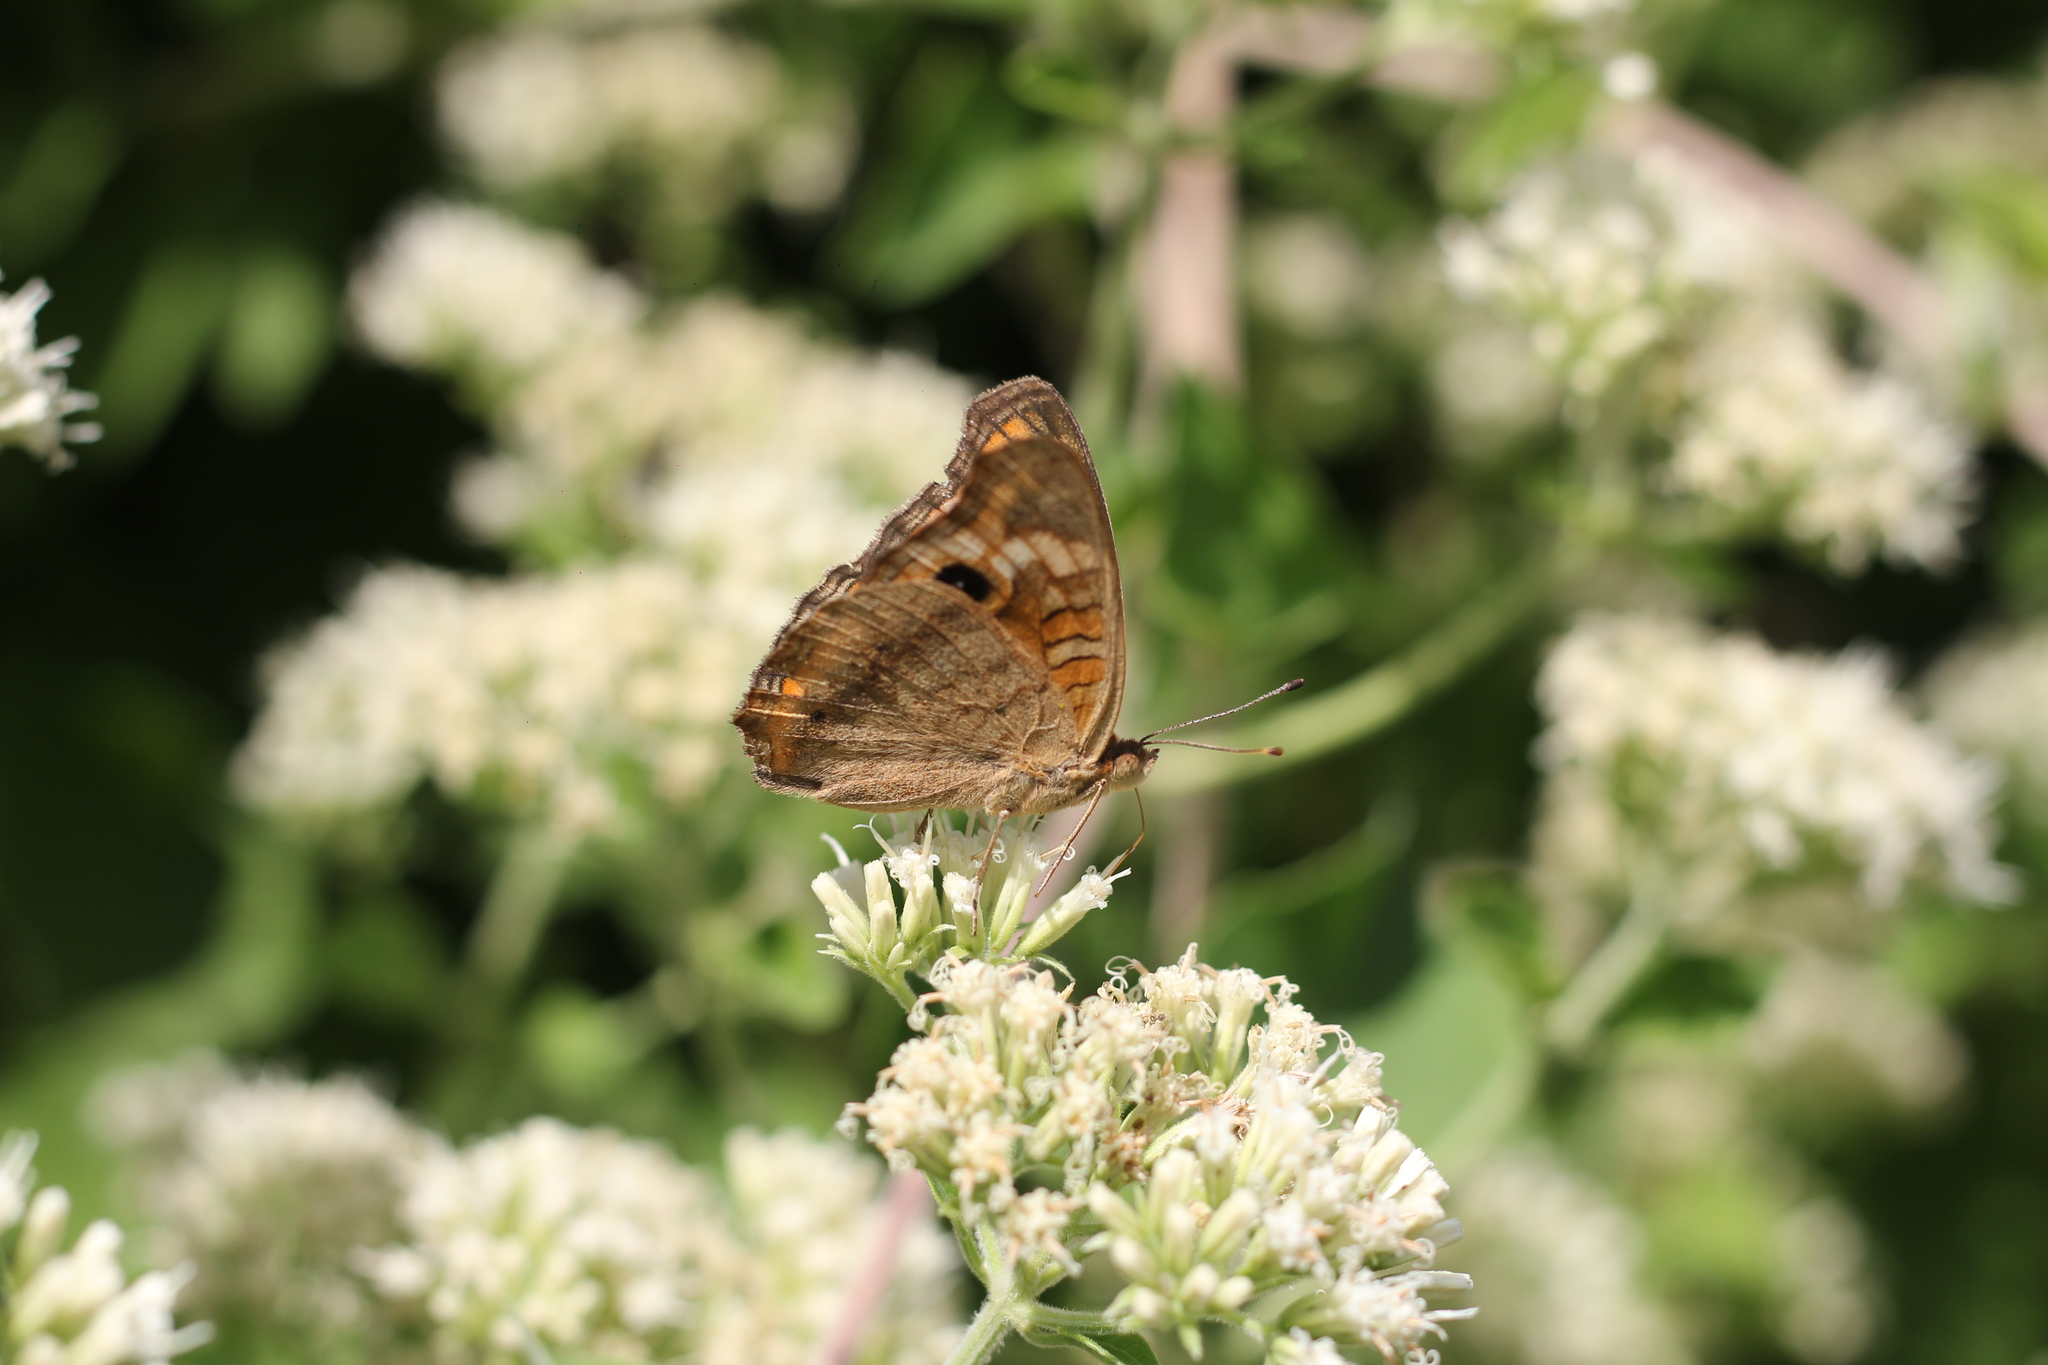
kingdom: Animalia
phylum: Arthropoda
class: Insecta
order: Lepidoptera
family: Nymphalidae
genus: Junonia
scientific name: Junonia lavinia
